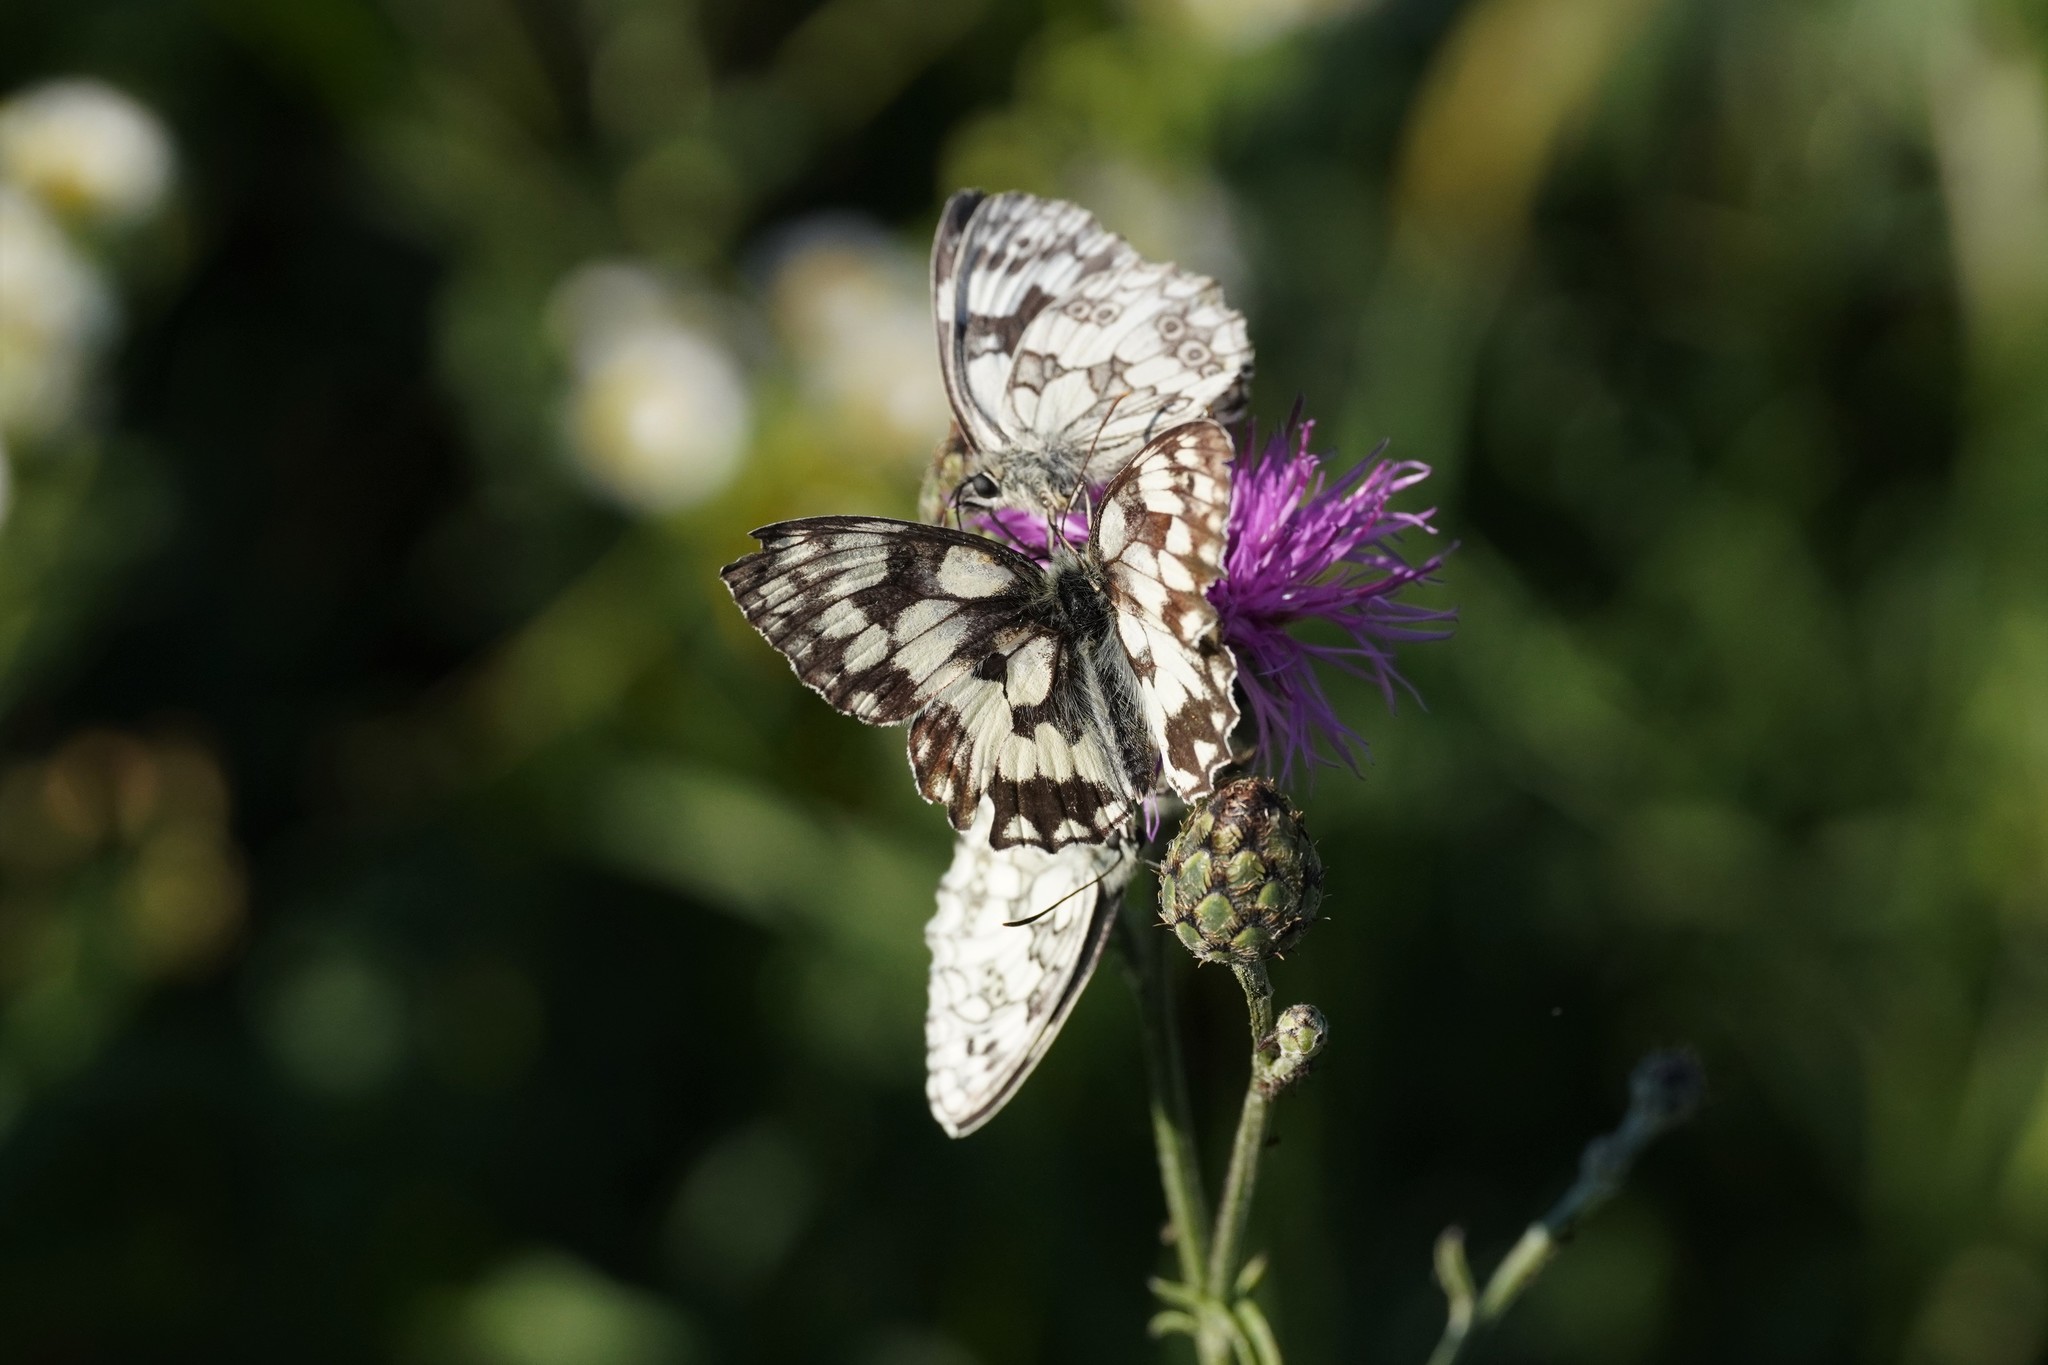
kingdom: Animalia
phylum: Arthropoda
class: Insecta
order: Lepidoptera
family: Nymphalidae
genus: Melanargia
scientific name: Melanargia galathea
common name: Marbled white
